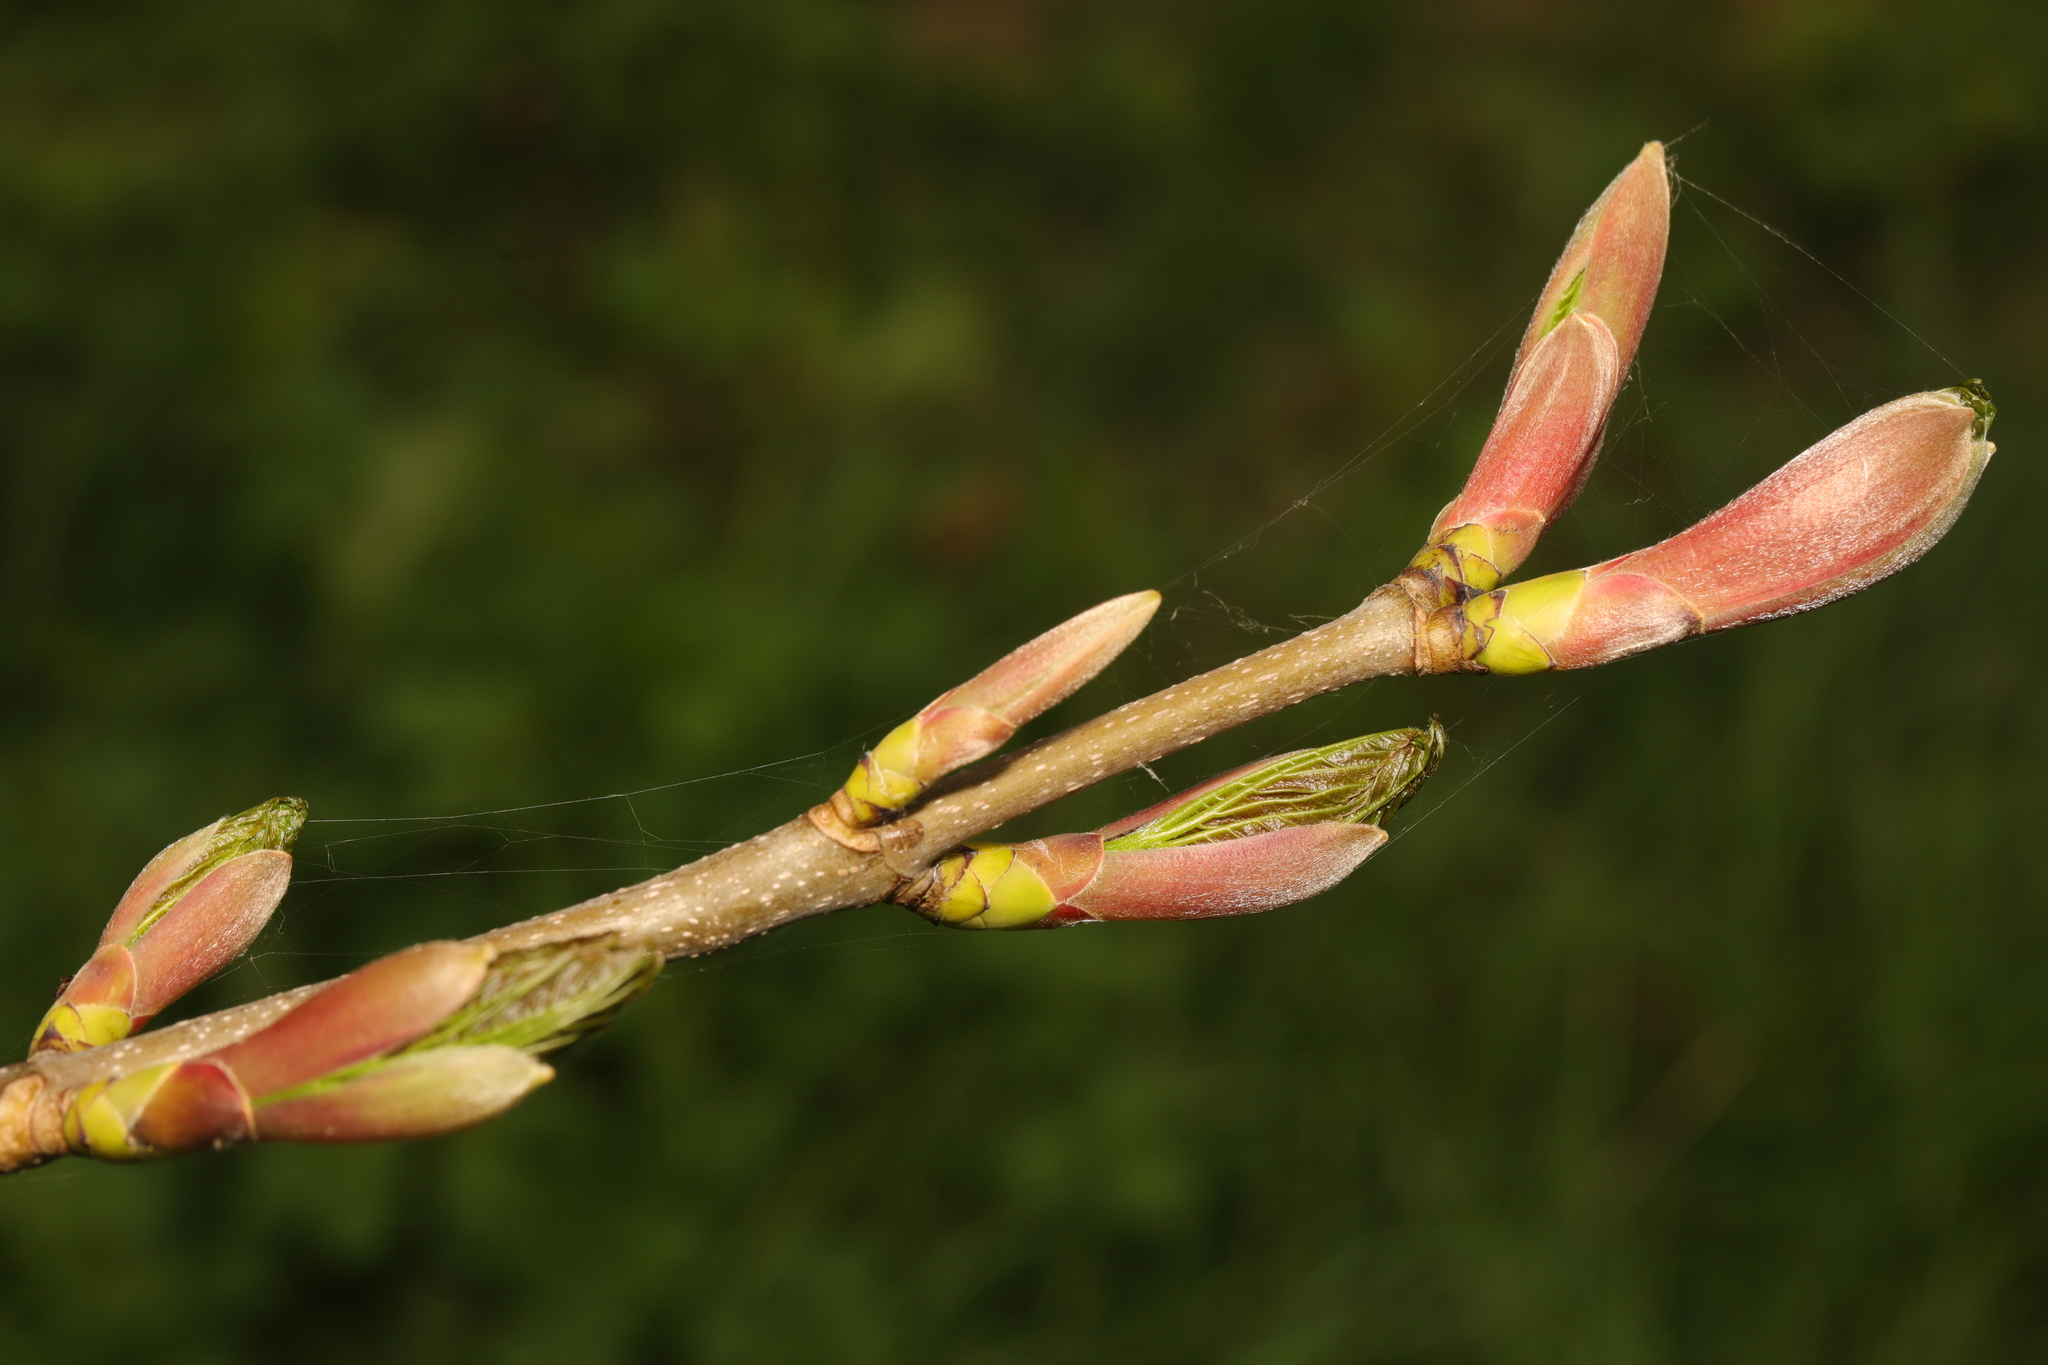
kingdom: Plantae
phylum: Tracheophyta
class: Magnoliopsida
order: Sapindales
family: Sapindaceae
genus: Acer
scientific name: Acer pseudoplatanus
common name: Sycamore
